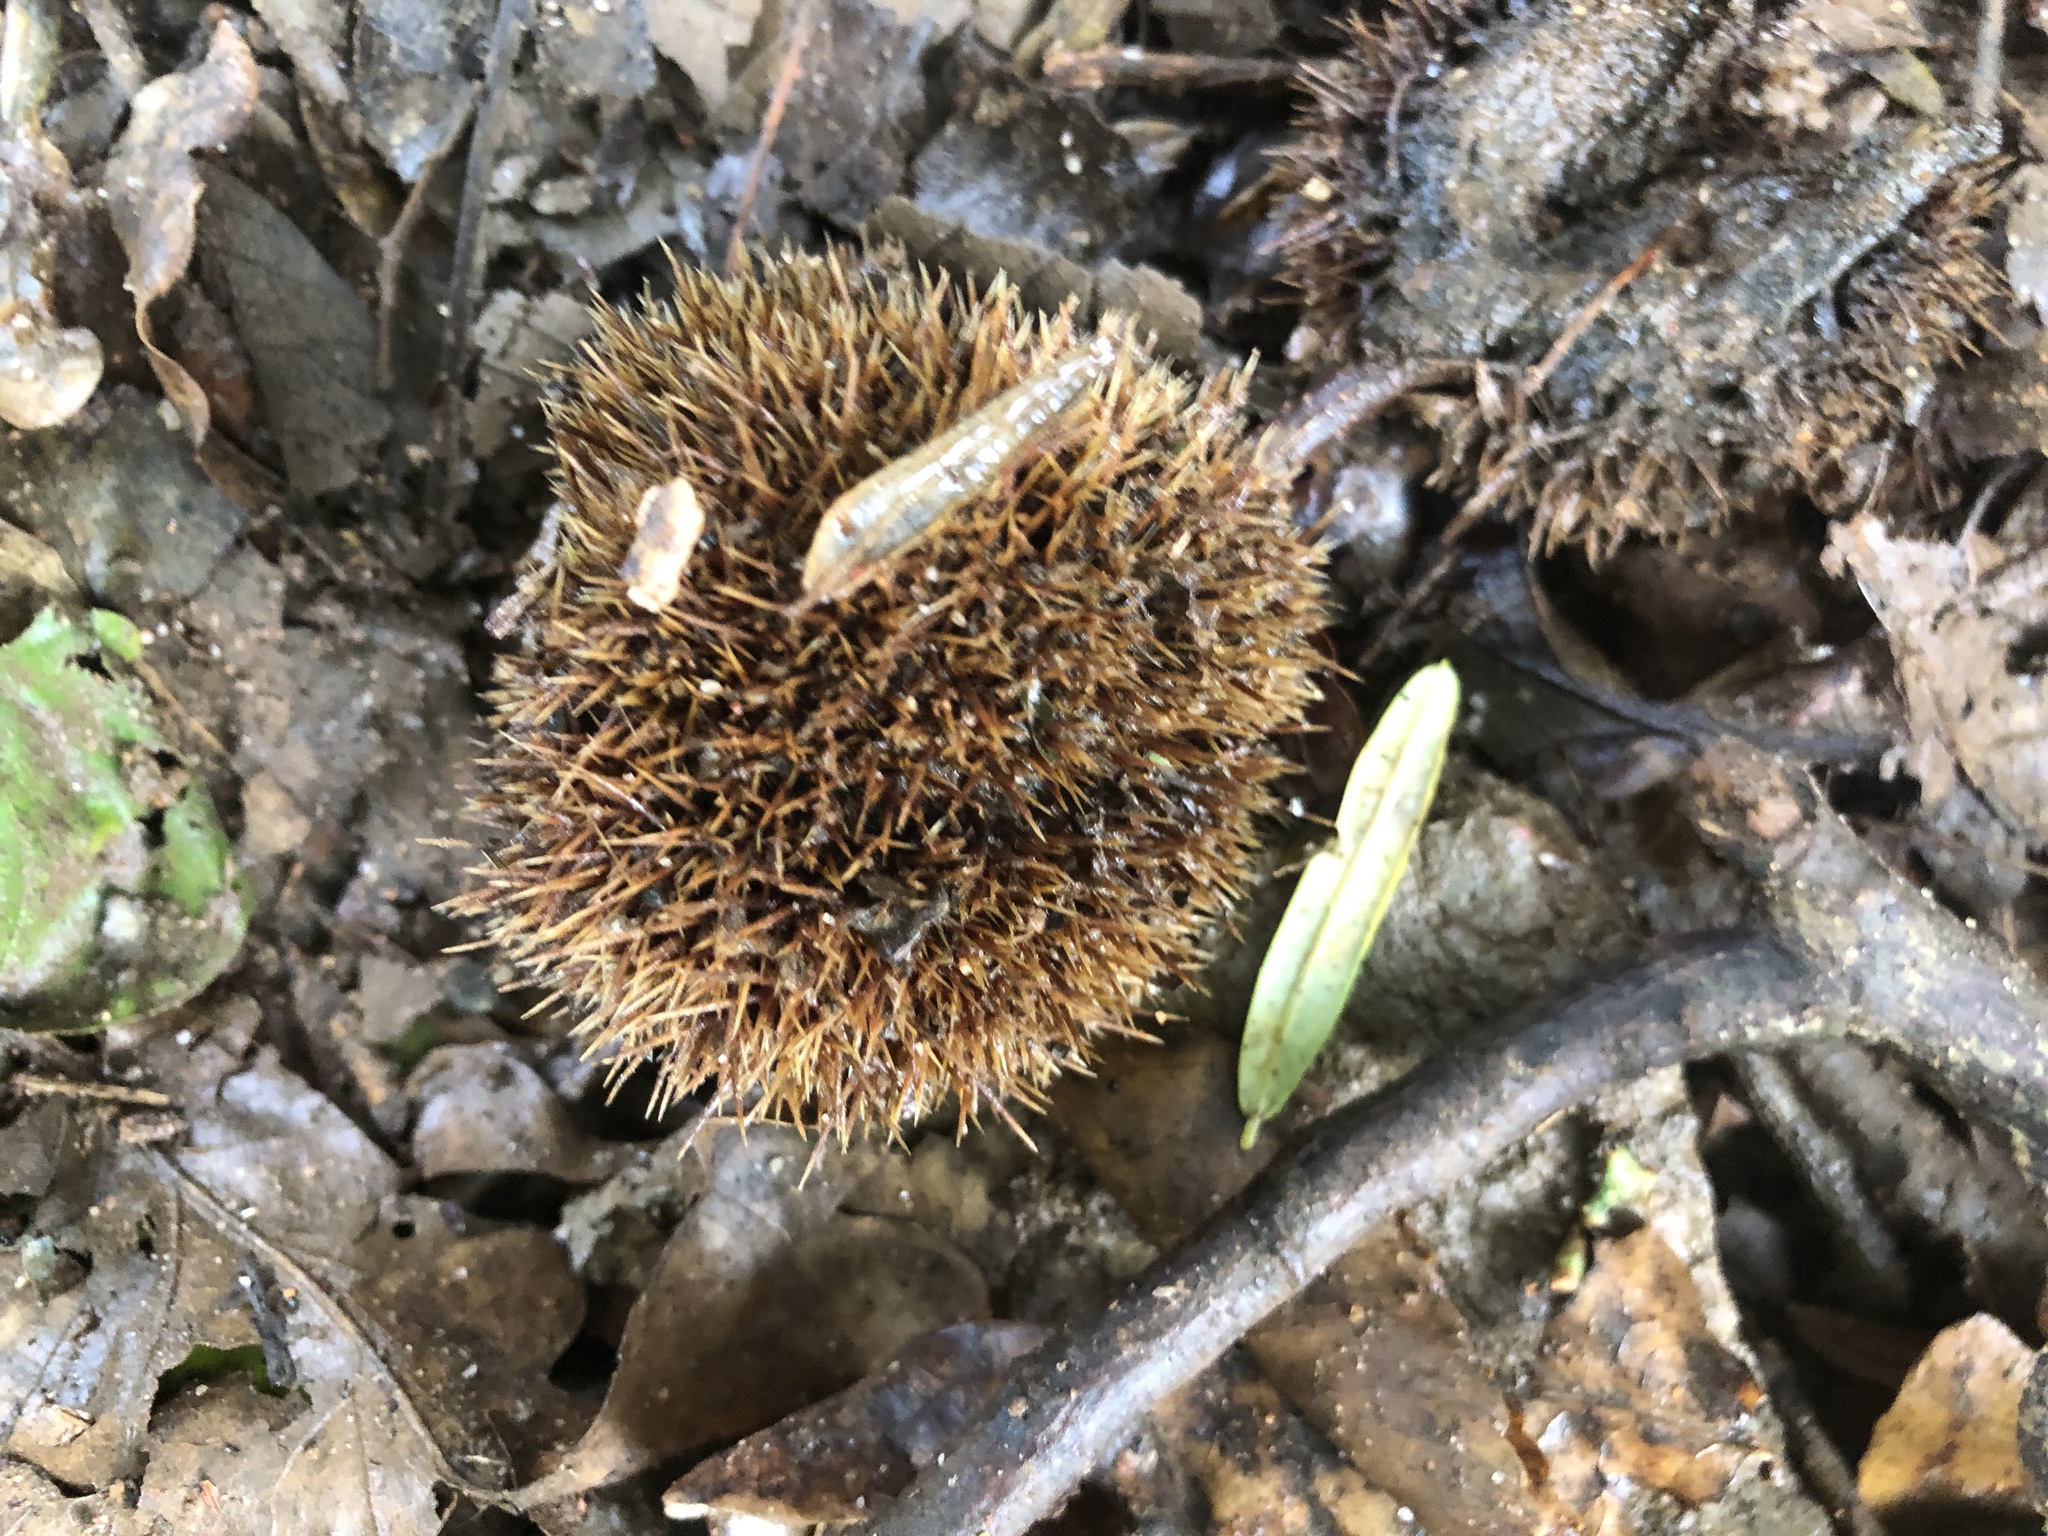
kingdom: Plantae
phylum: Tracheophyta
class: Magnoliopsida
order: Fagales
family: Fagaceae
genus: Castanea
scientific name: Castanea sativa
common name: Sweet chestnut
